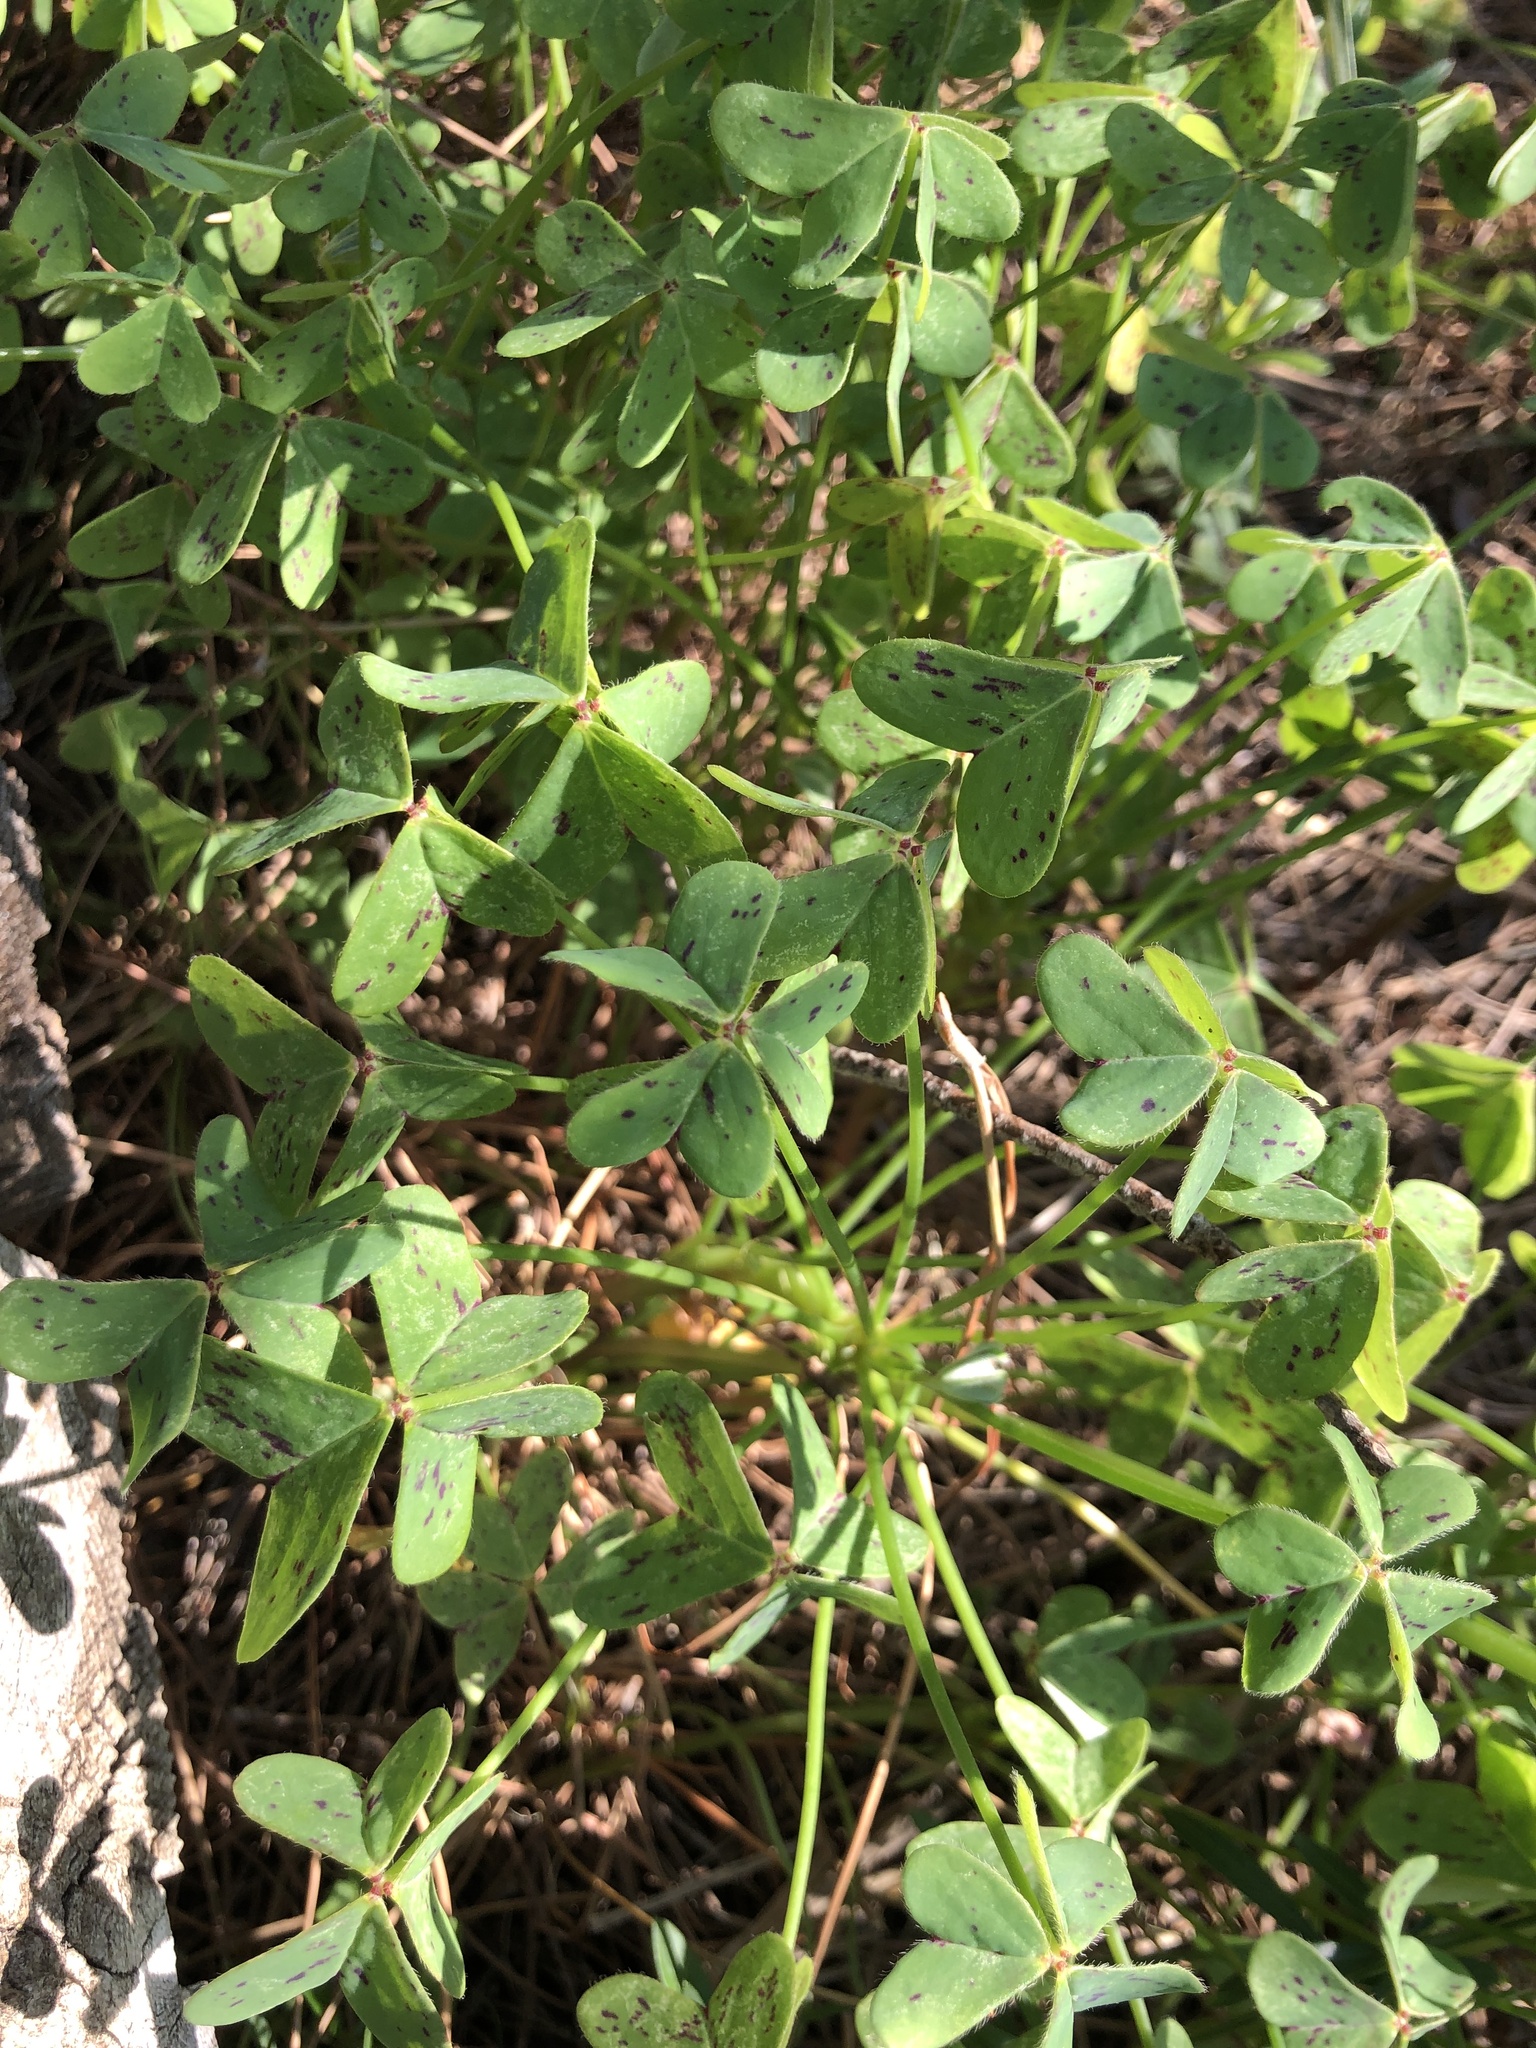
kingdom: Plantae
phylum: Tracheophyta
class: Magnoliopsida
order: Oxalidales
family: Oxalidaceae
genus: Oxalis
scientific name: Oxalis pes-caprae
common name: Bermuda-buttercup
